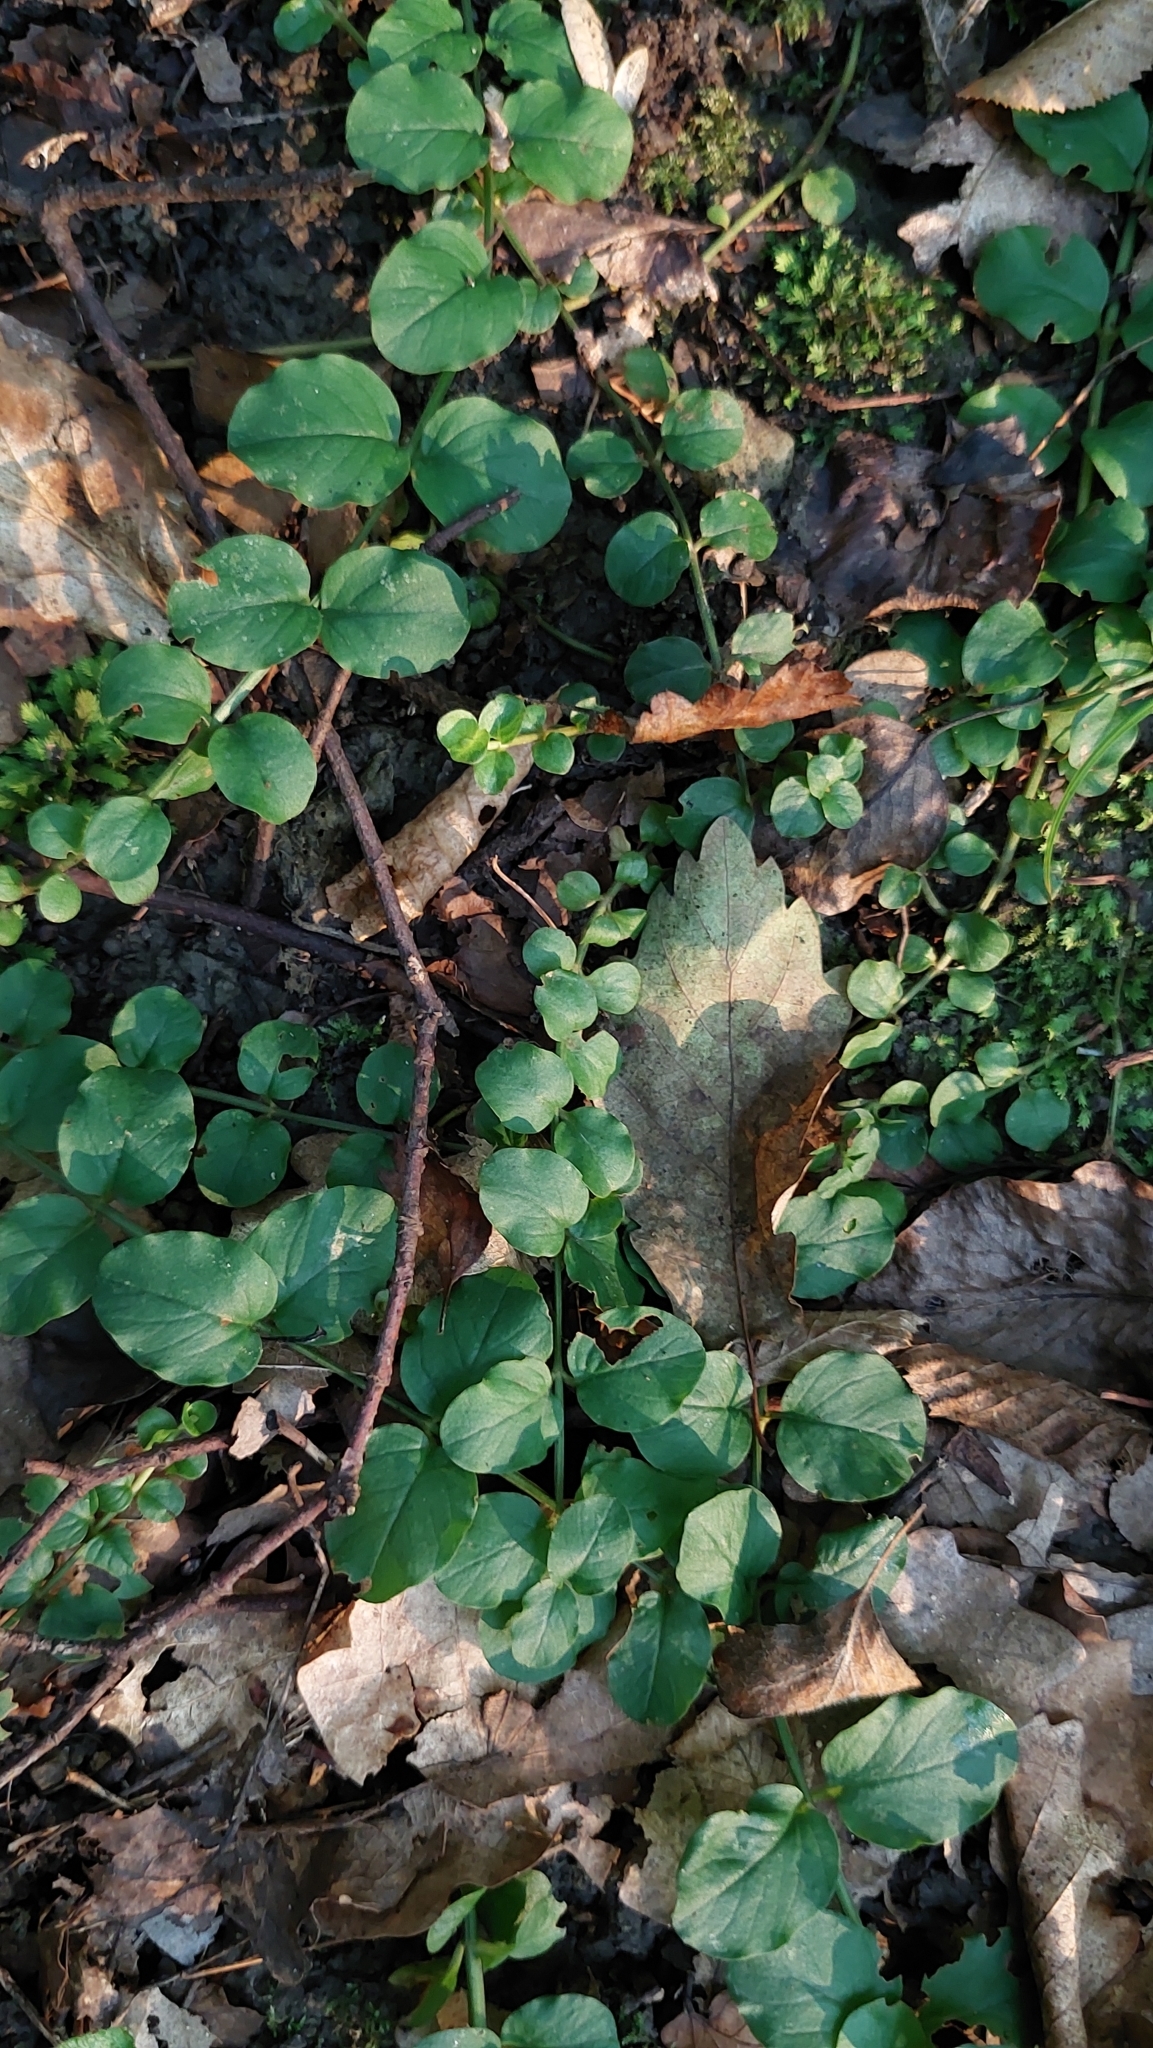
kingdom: Plantae
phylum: Tracheophyta
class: Magnoliopsida
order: Ericales
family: Primulaceae
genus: Lysimachia
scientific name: Lysimachia nummularia
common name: Moneywort
